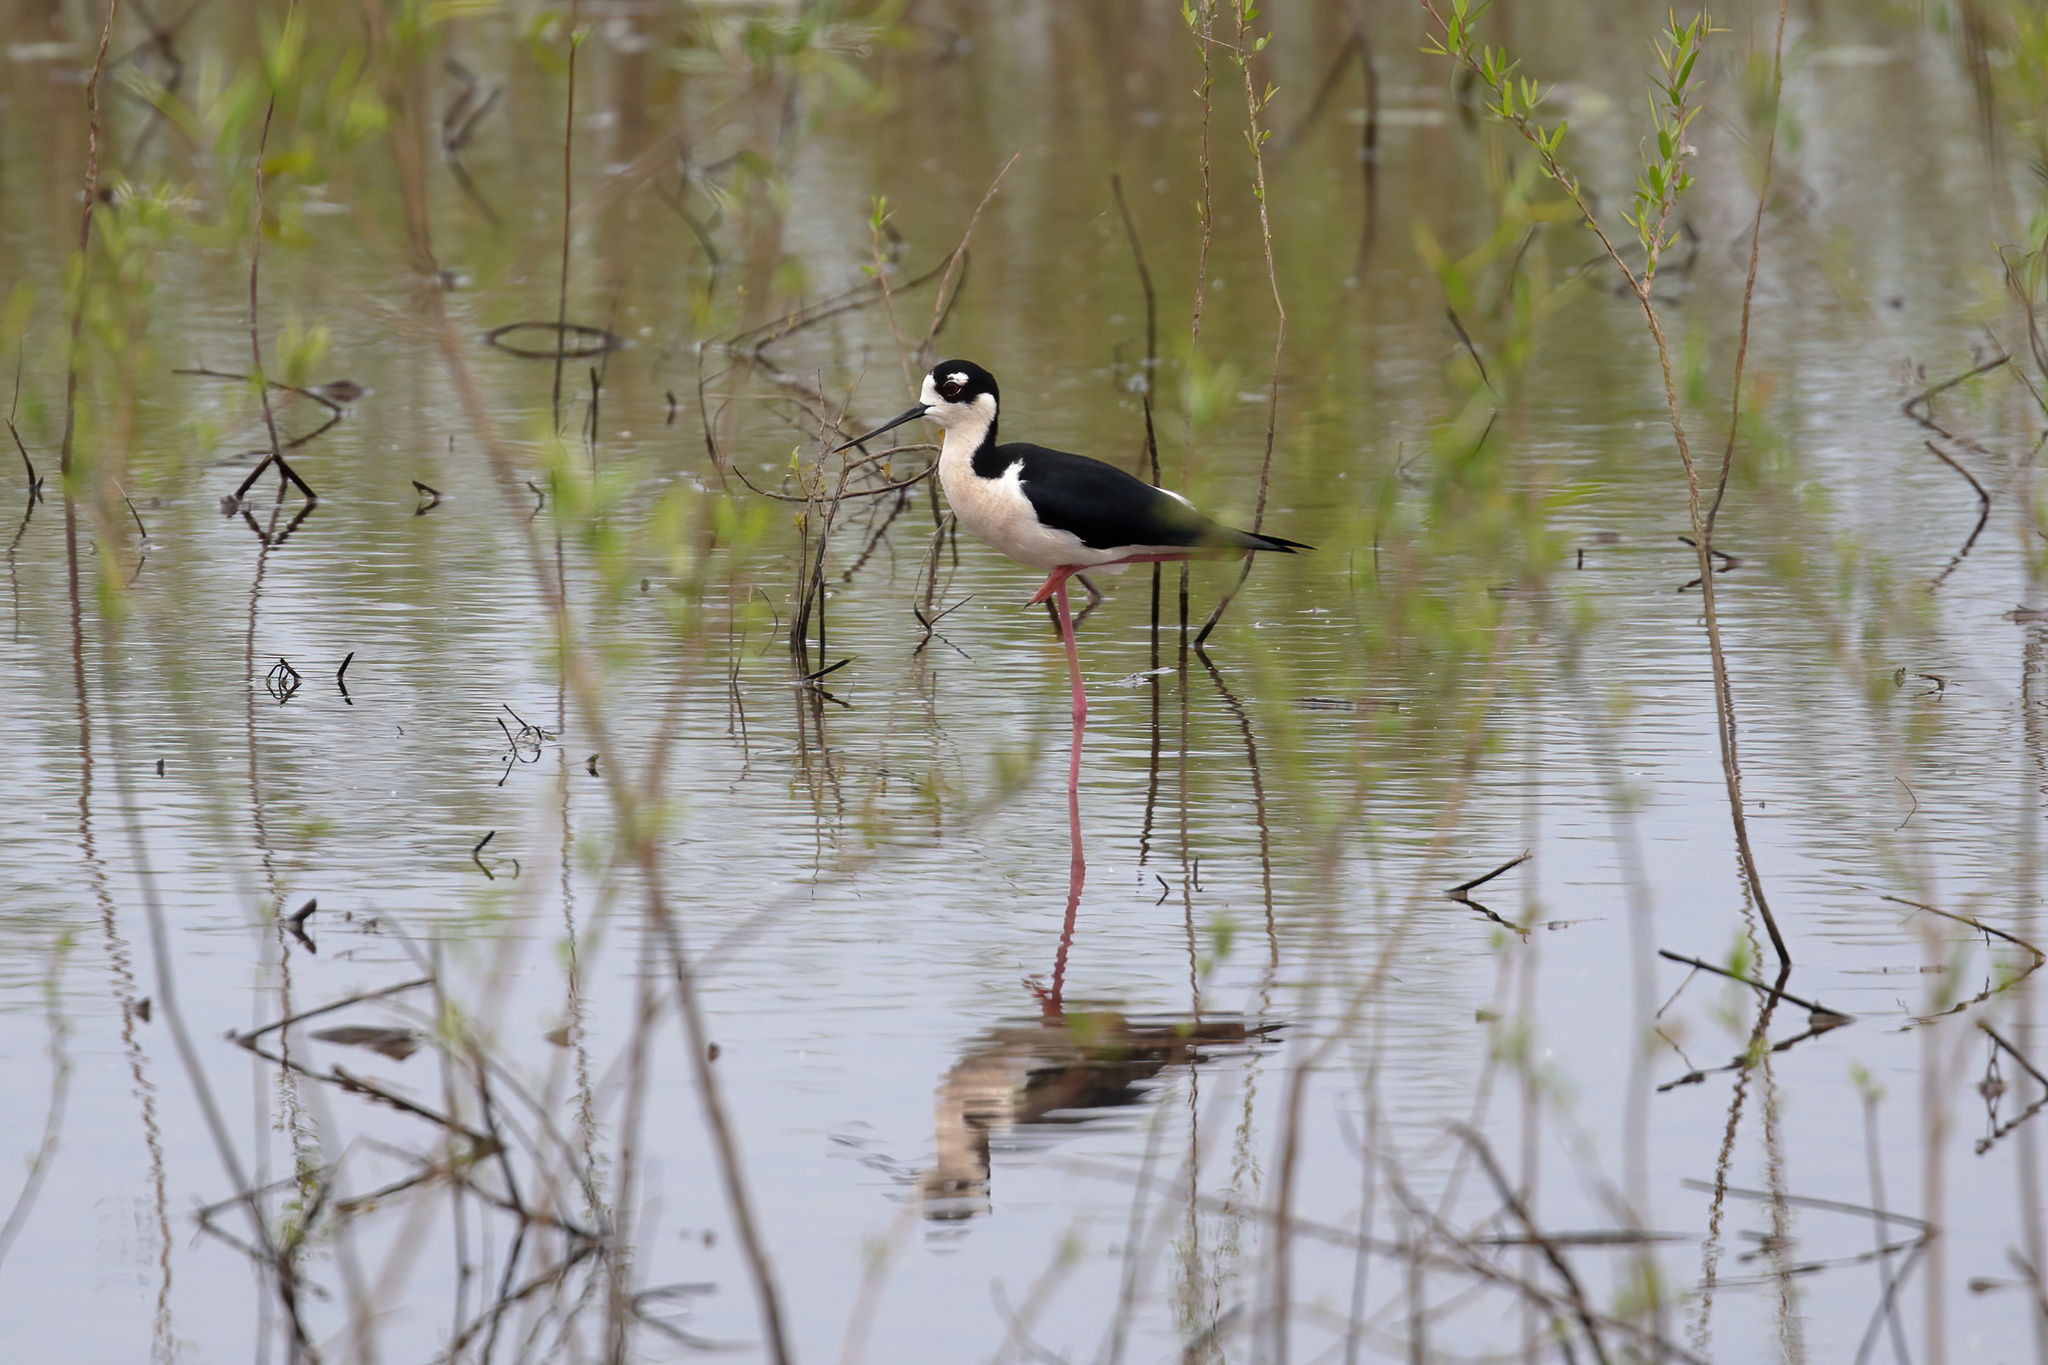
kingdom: Animalia
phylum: Chordata
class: Aves
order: Charadriiformes
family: Recurvirostridae
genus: Himantopus
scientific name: Himantopus mexicanus
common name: Black-necked stilt
